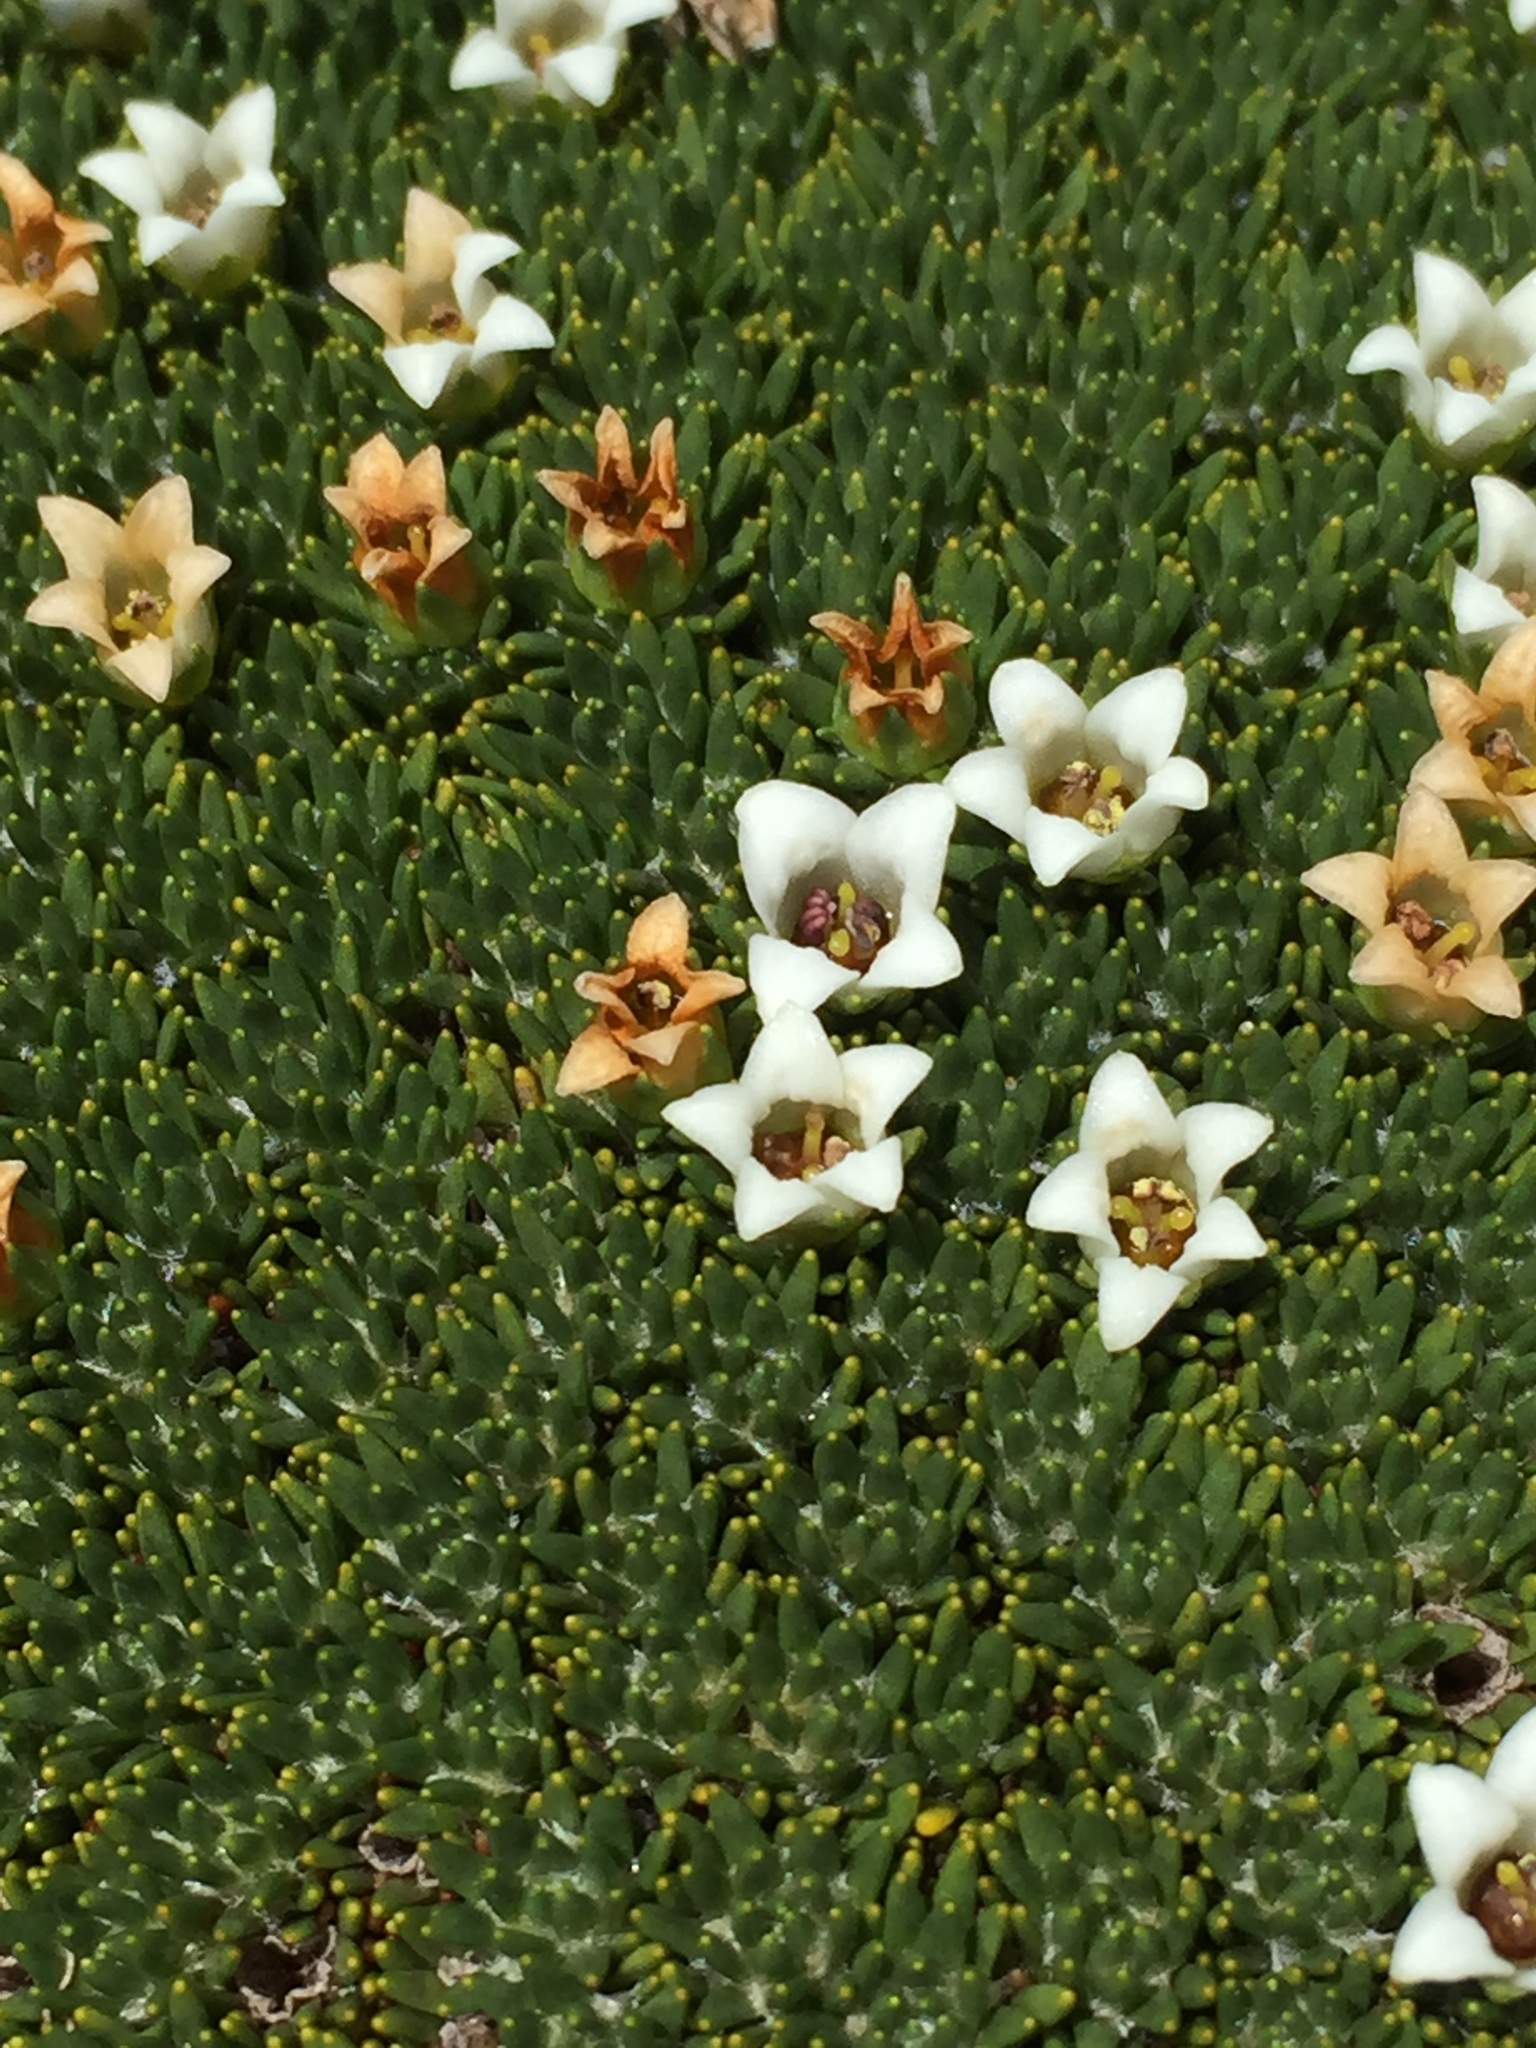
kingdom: Plantae
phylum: Tracheophyta
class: Magnoliopsida
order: Asterales
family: Stylidiaceae
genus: Donatia
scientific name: Donatia novae-zelandiae
